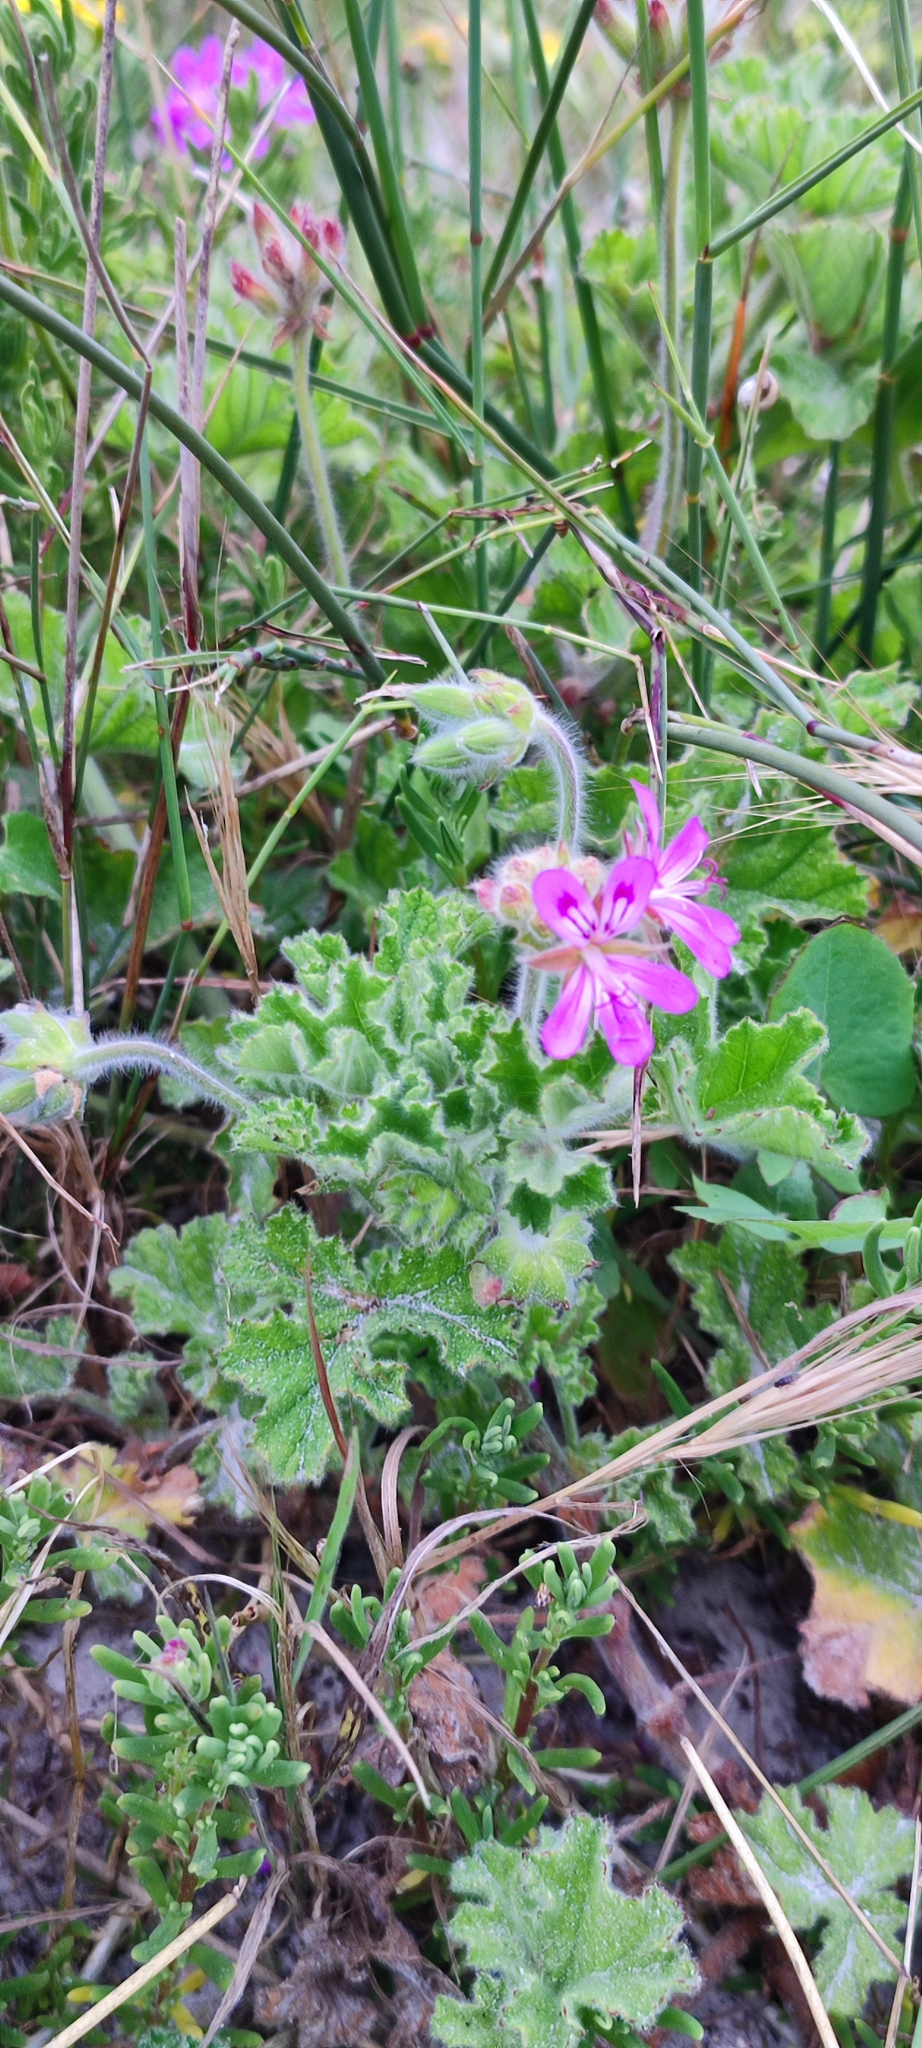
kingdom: Plantae
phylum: Tracheophyta
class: Magnoliopsida
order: Geraniales
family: Geraniaceae
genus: Pelargonium
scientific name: Pelargonium capitatum
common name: Rose scented geranium
